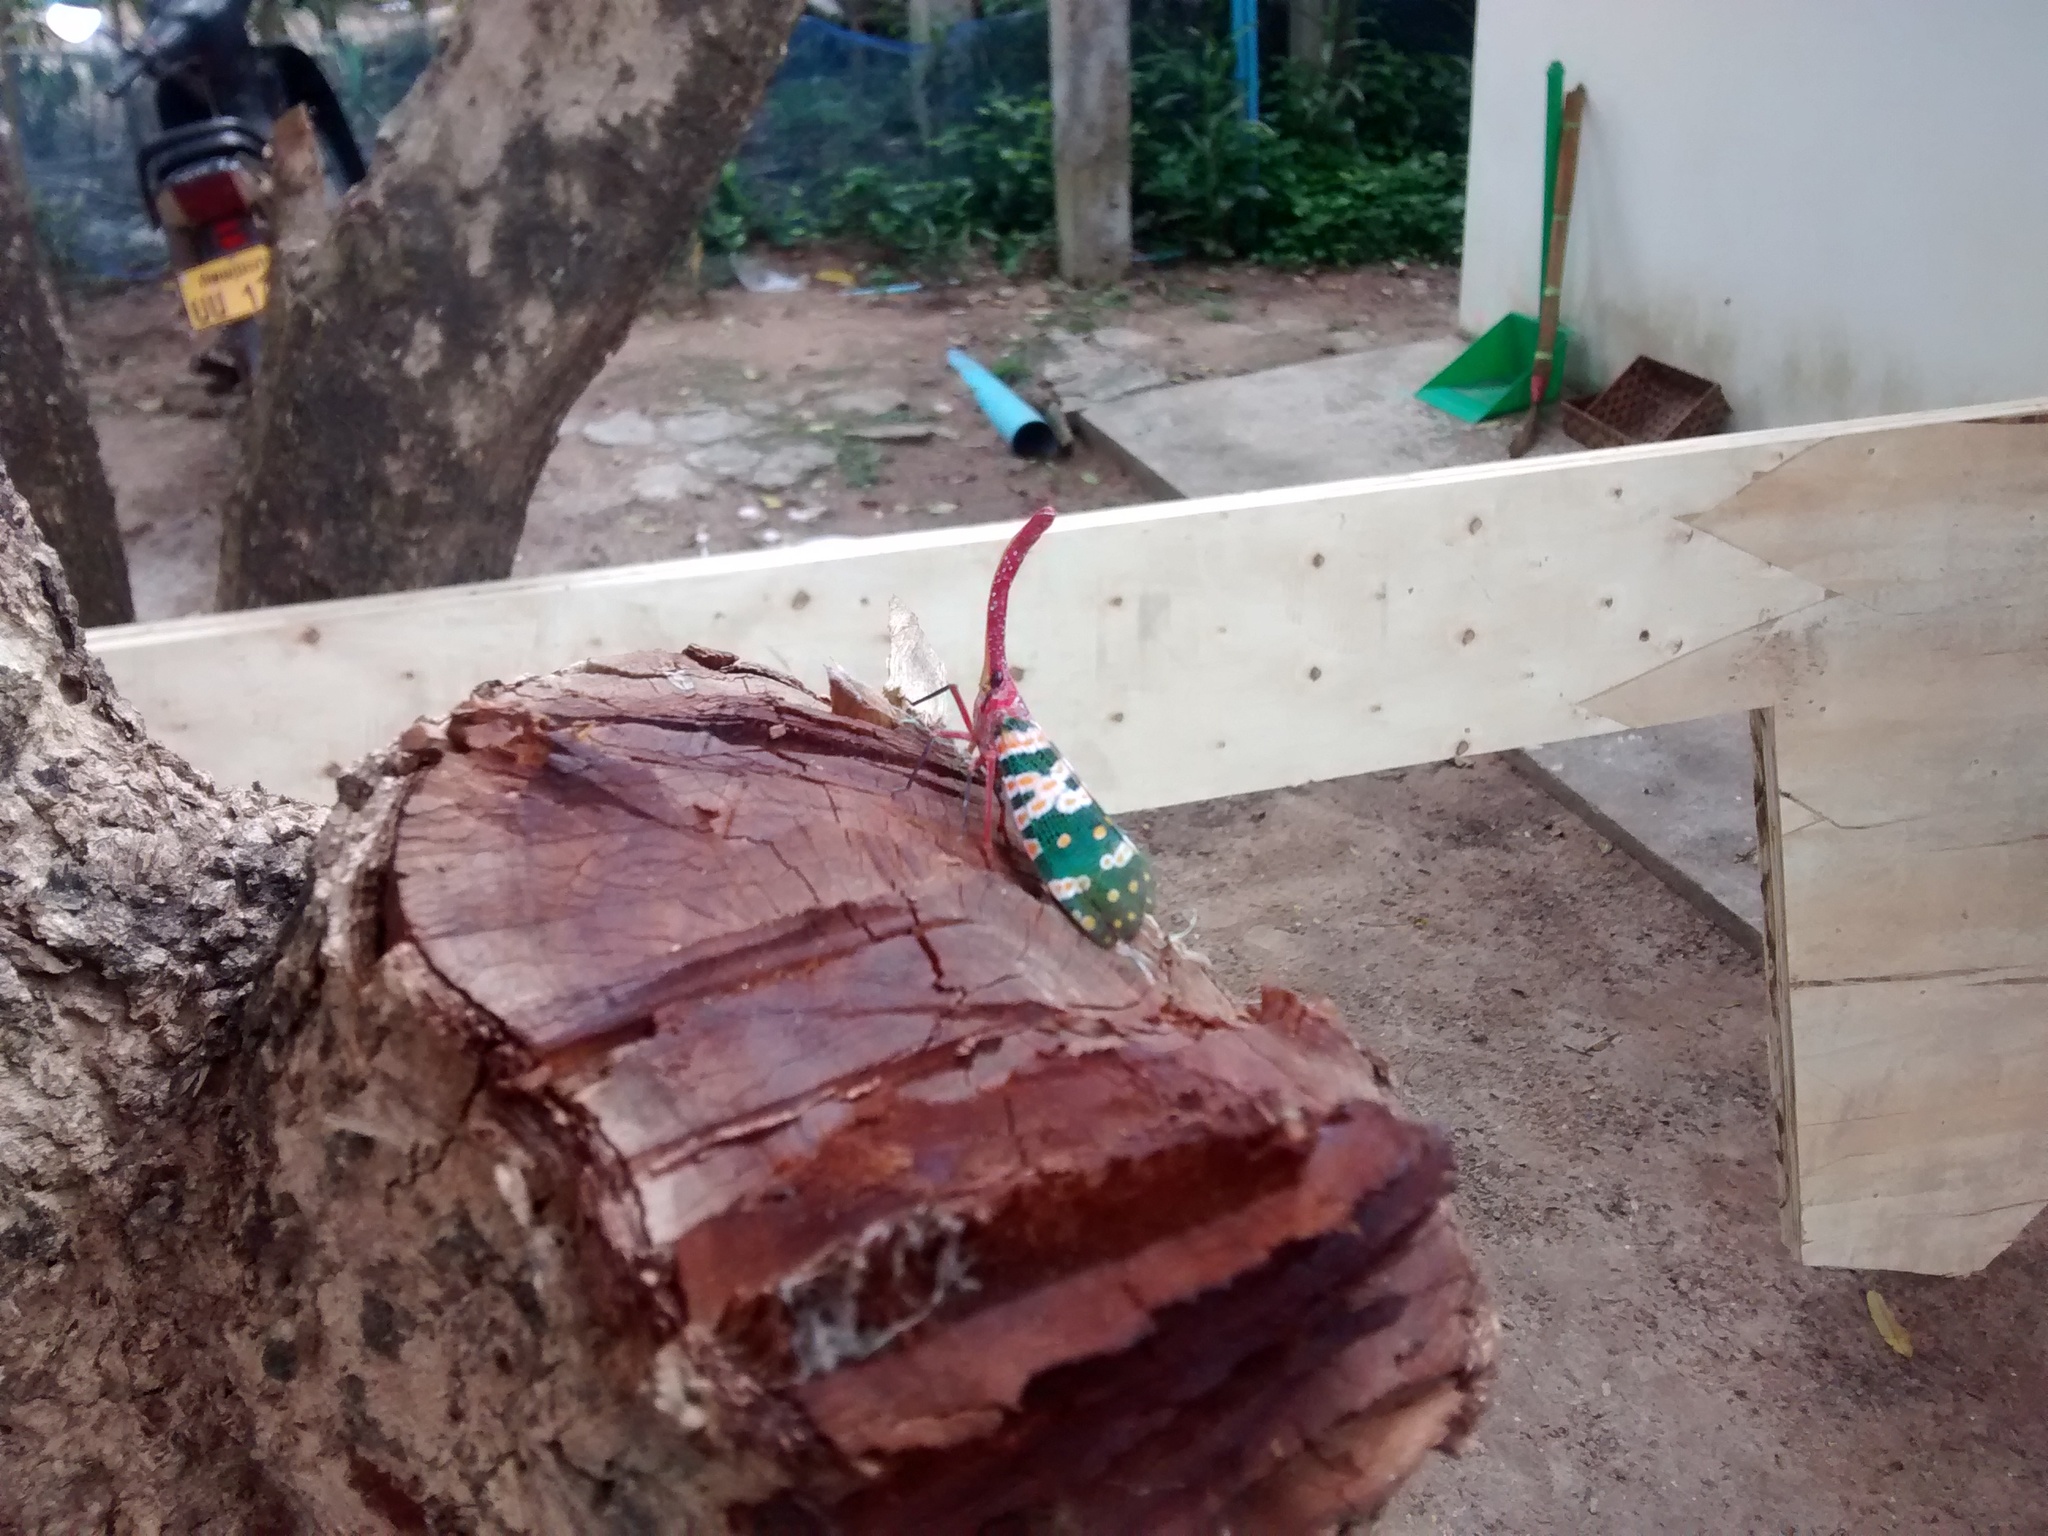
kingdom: Animalia
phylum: Arthropoda
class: Insecta
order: Hemiptera
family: Fulgoridae
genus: Pyrops
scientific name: Pyrops candelaria
